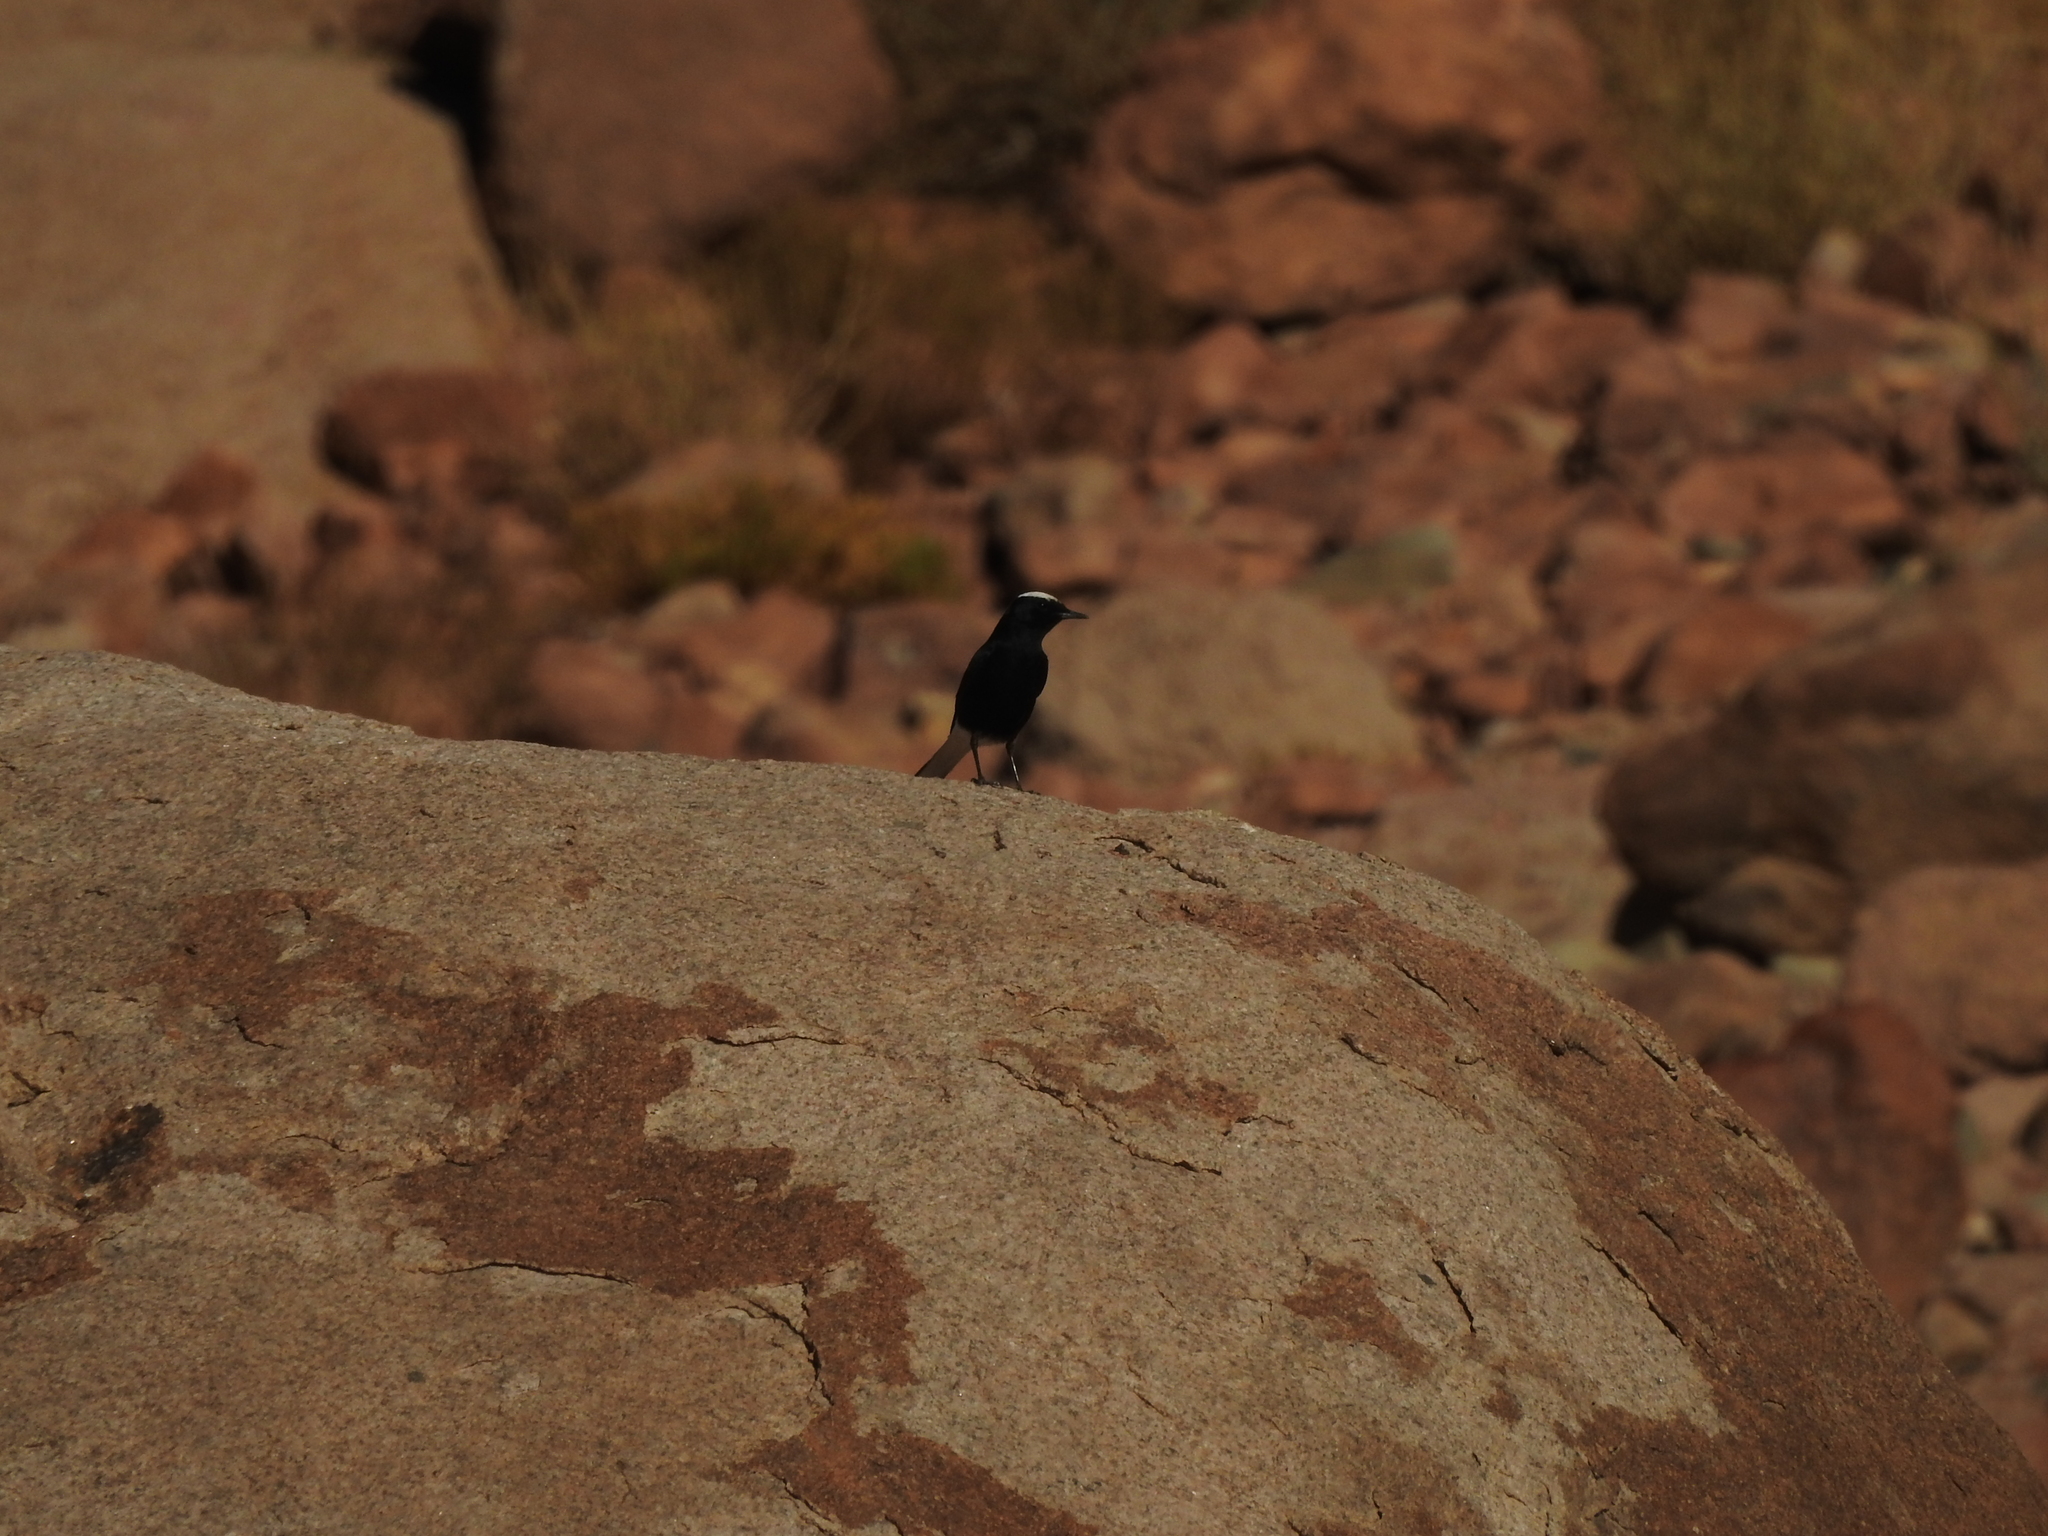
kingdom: Animalia
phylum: Chordata
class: Aves
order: Passeriformes
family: Muscicapidae
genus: Oenanthe
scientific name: Oenanthe leucopyga
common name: White-crowned wheatear
